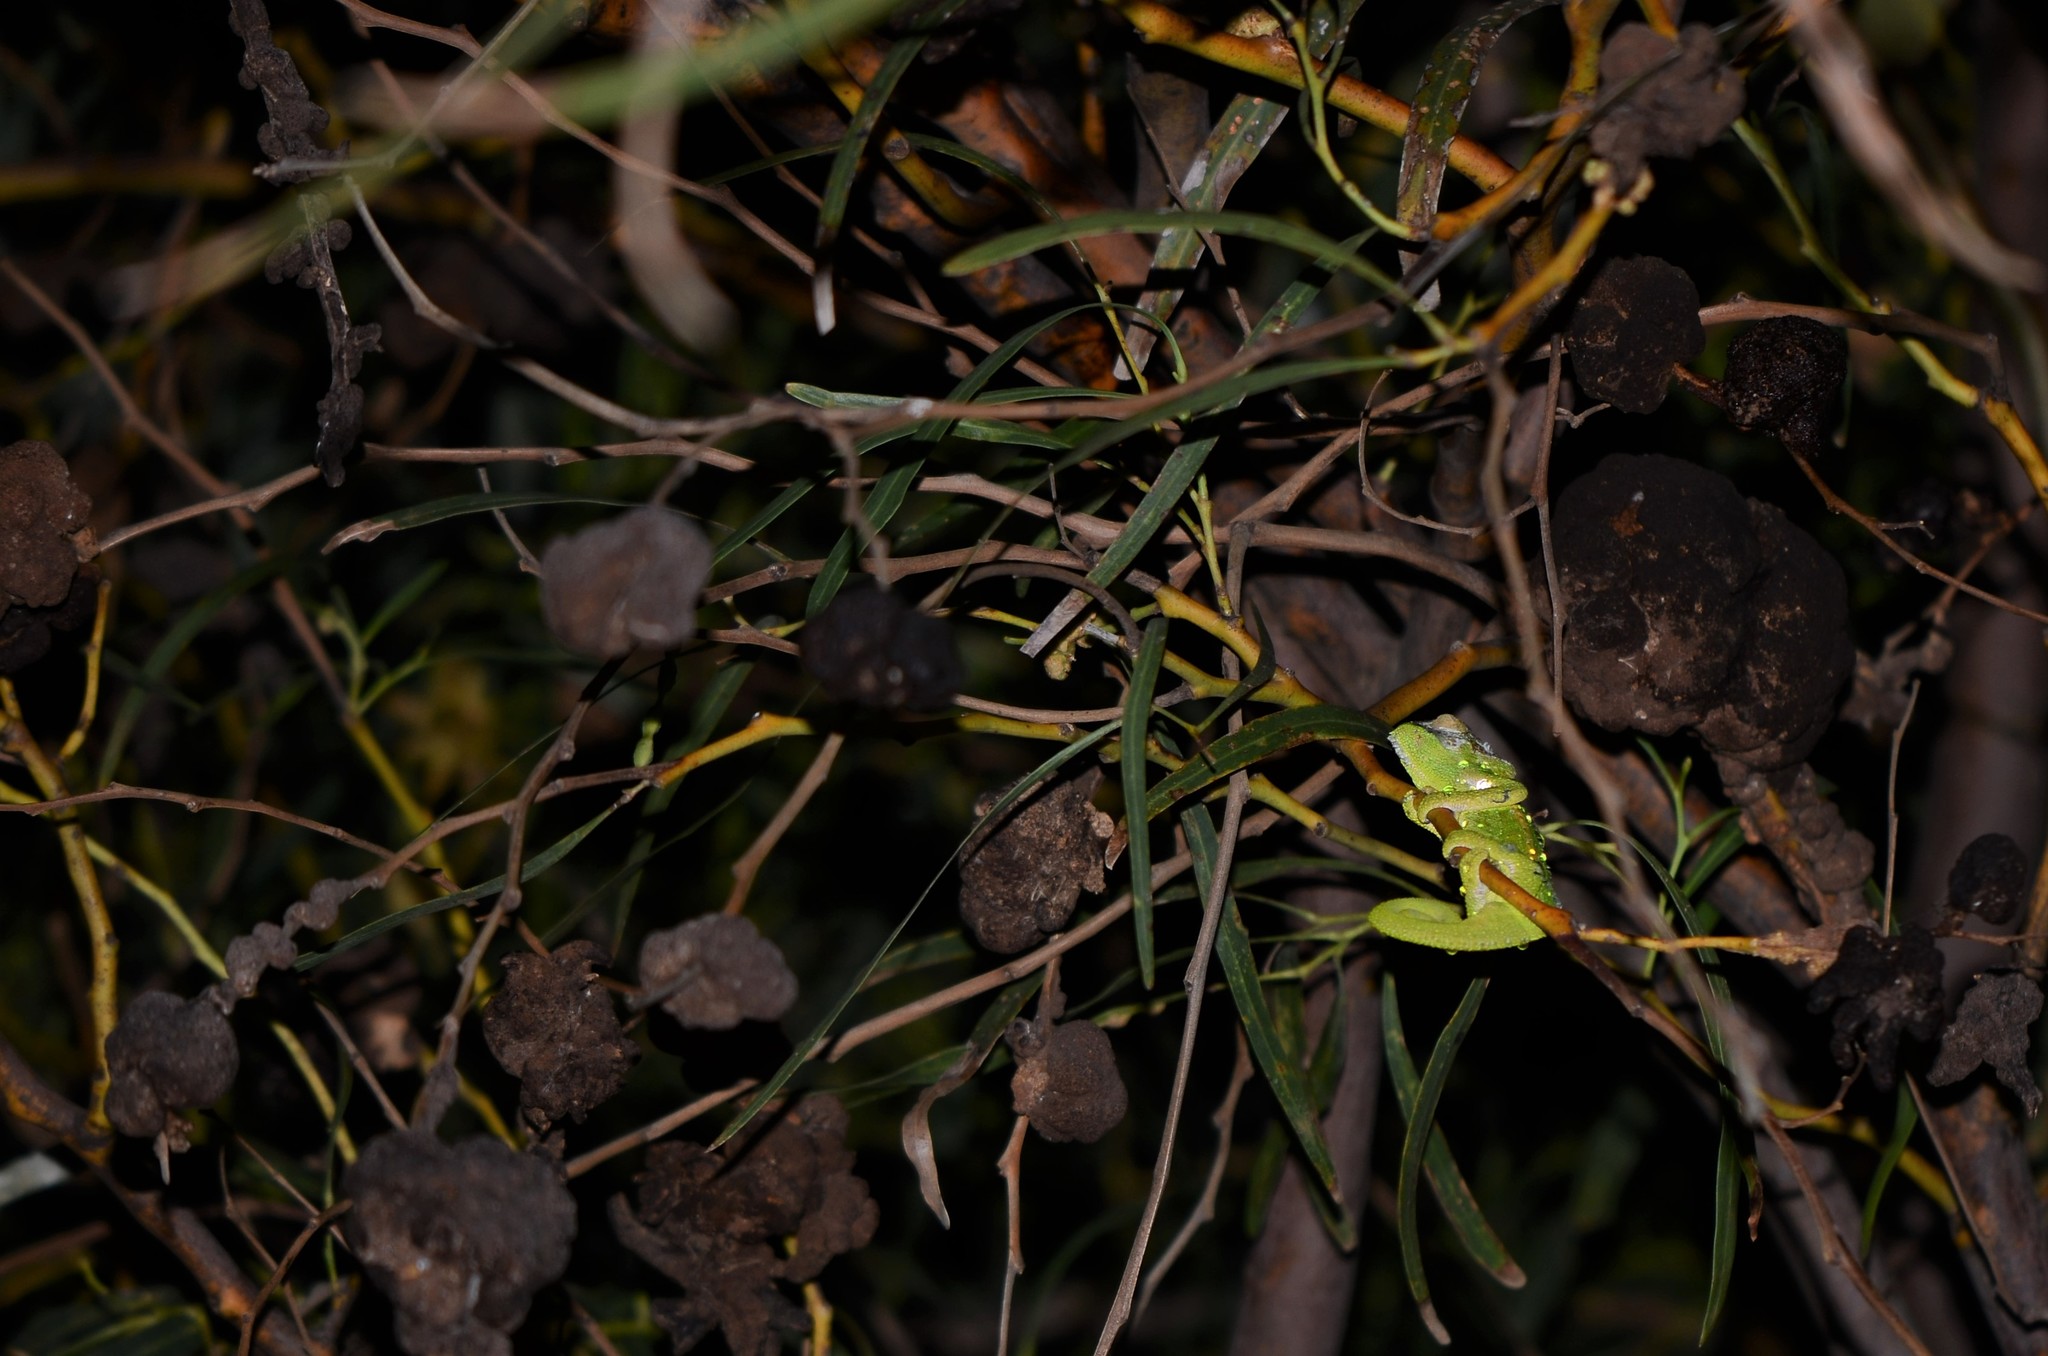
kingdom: Animalia
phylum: Chordata
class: Squamata
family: Chamaeleonidae
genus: Bradypodion
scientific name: Bradypodion pumilum
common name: Cape dwarf chameleon
